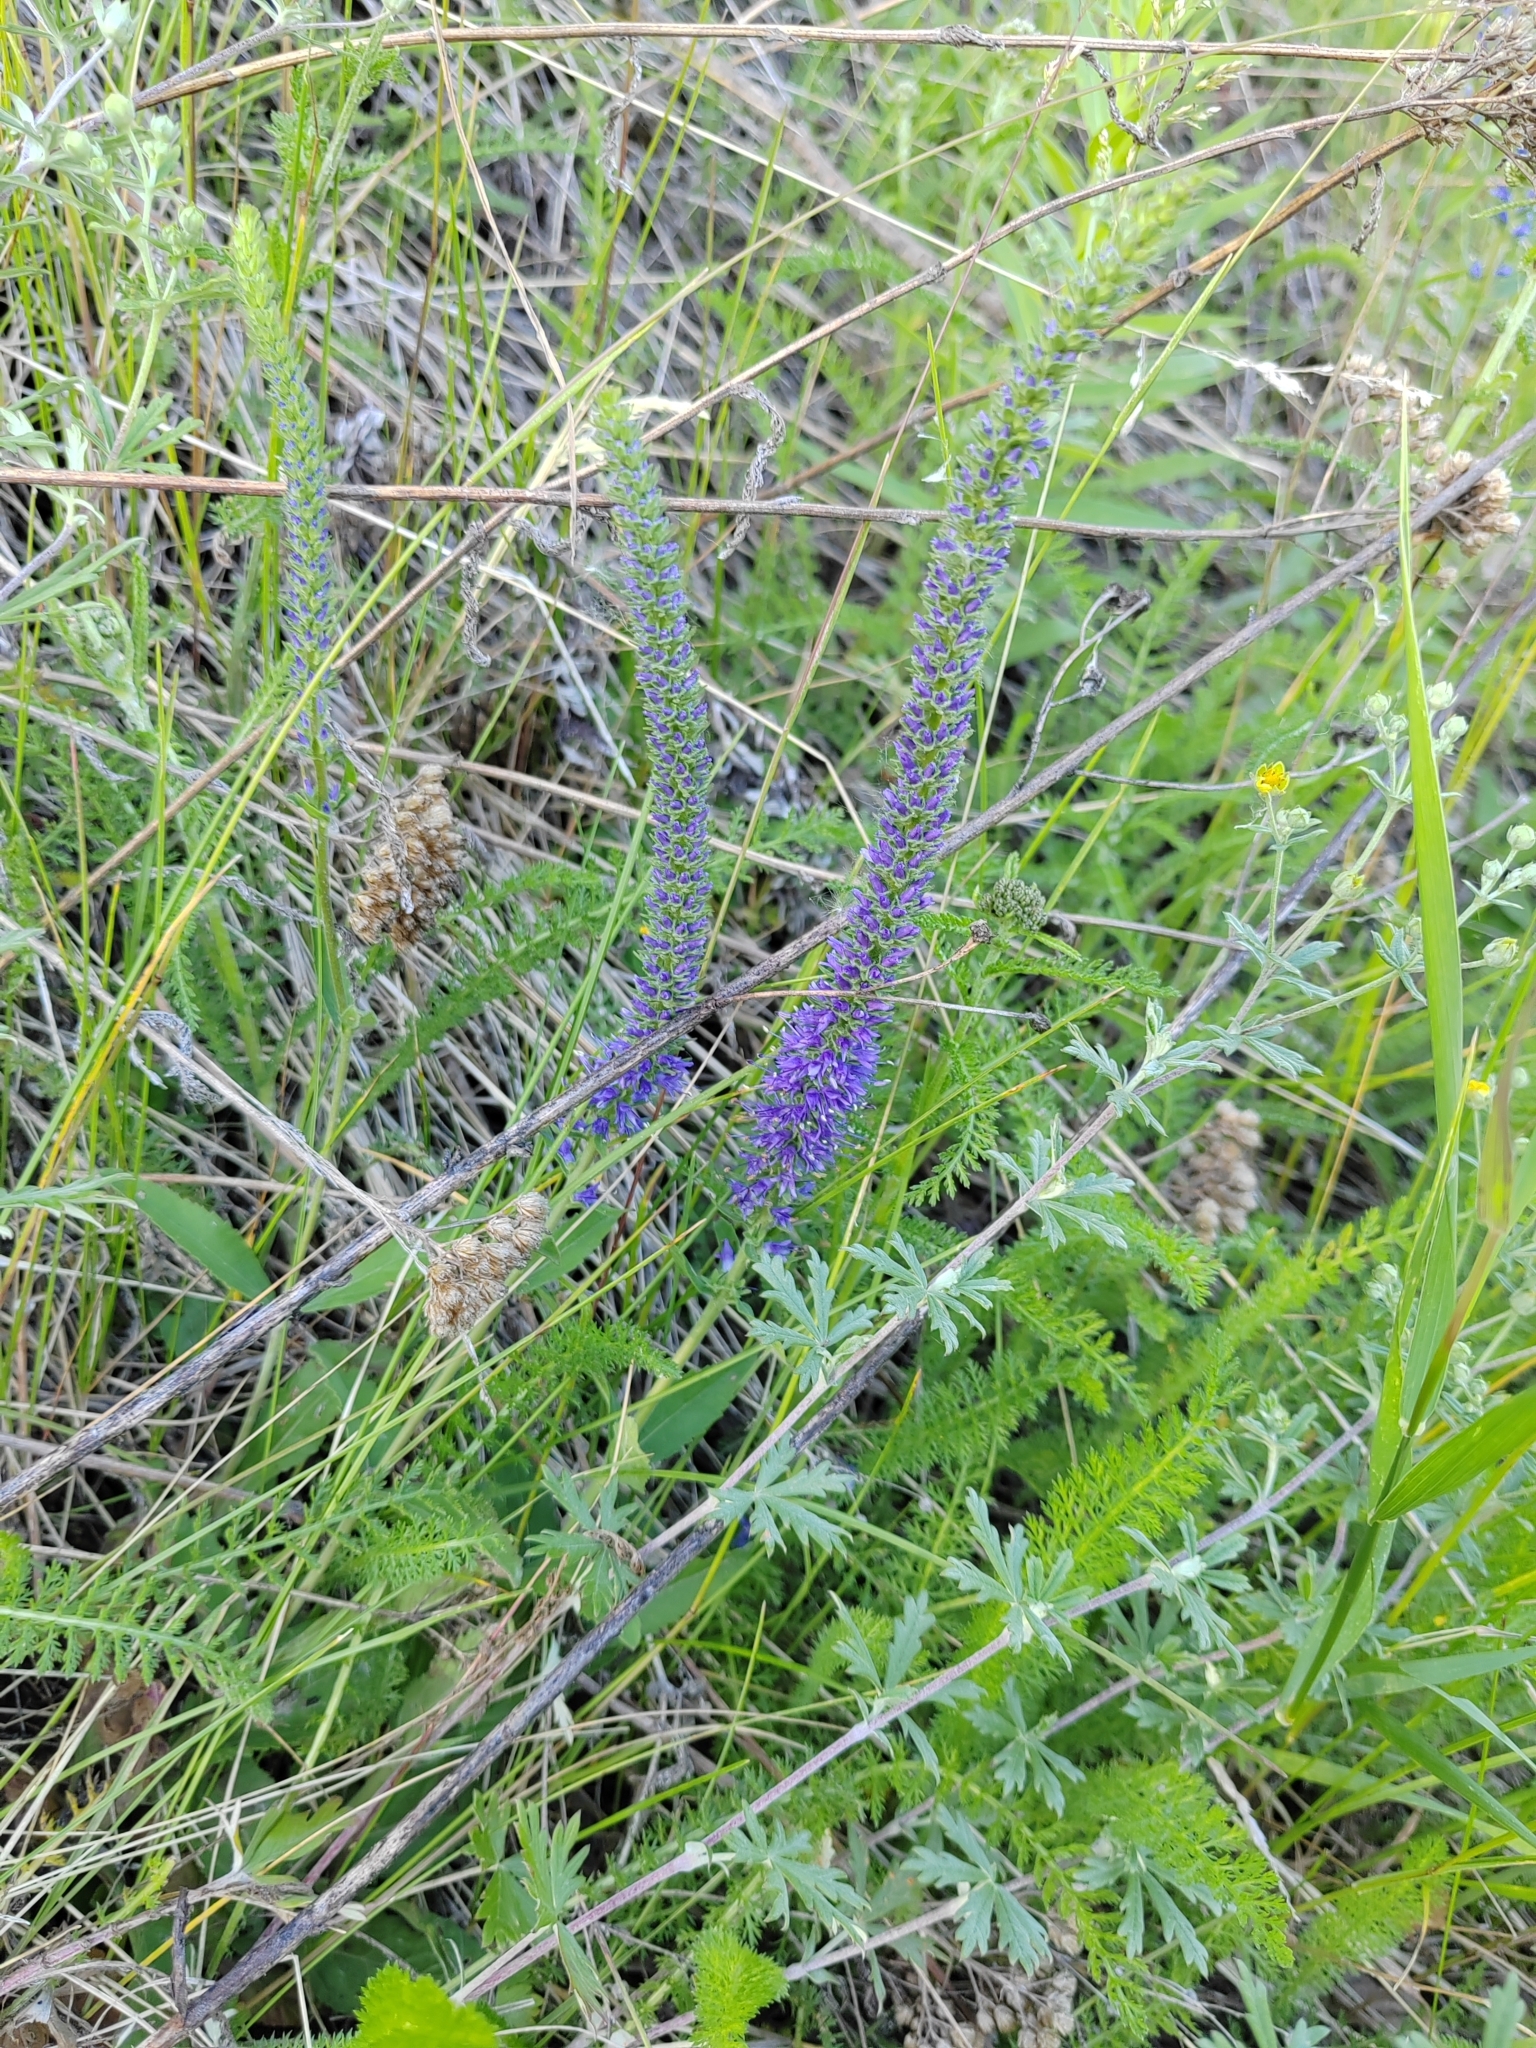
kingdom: Plantae
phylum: Tracheophyta
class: Magnoliopsida
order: Lamiales
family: Plantaginaceae
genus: Veronica
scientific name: Veronica spicata
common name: Spiked speedwell
